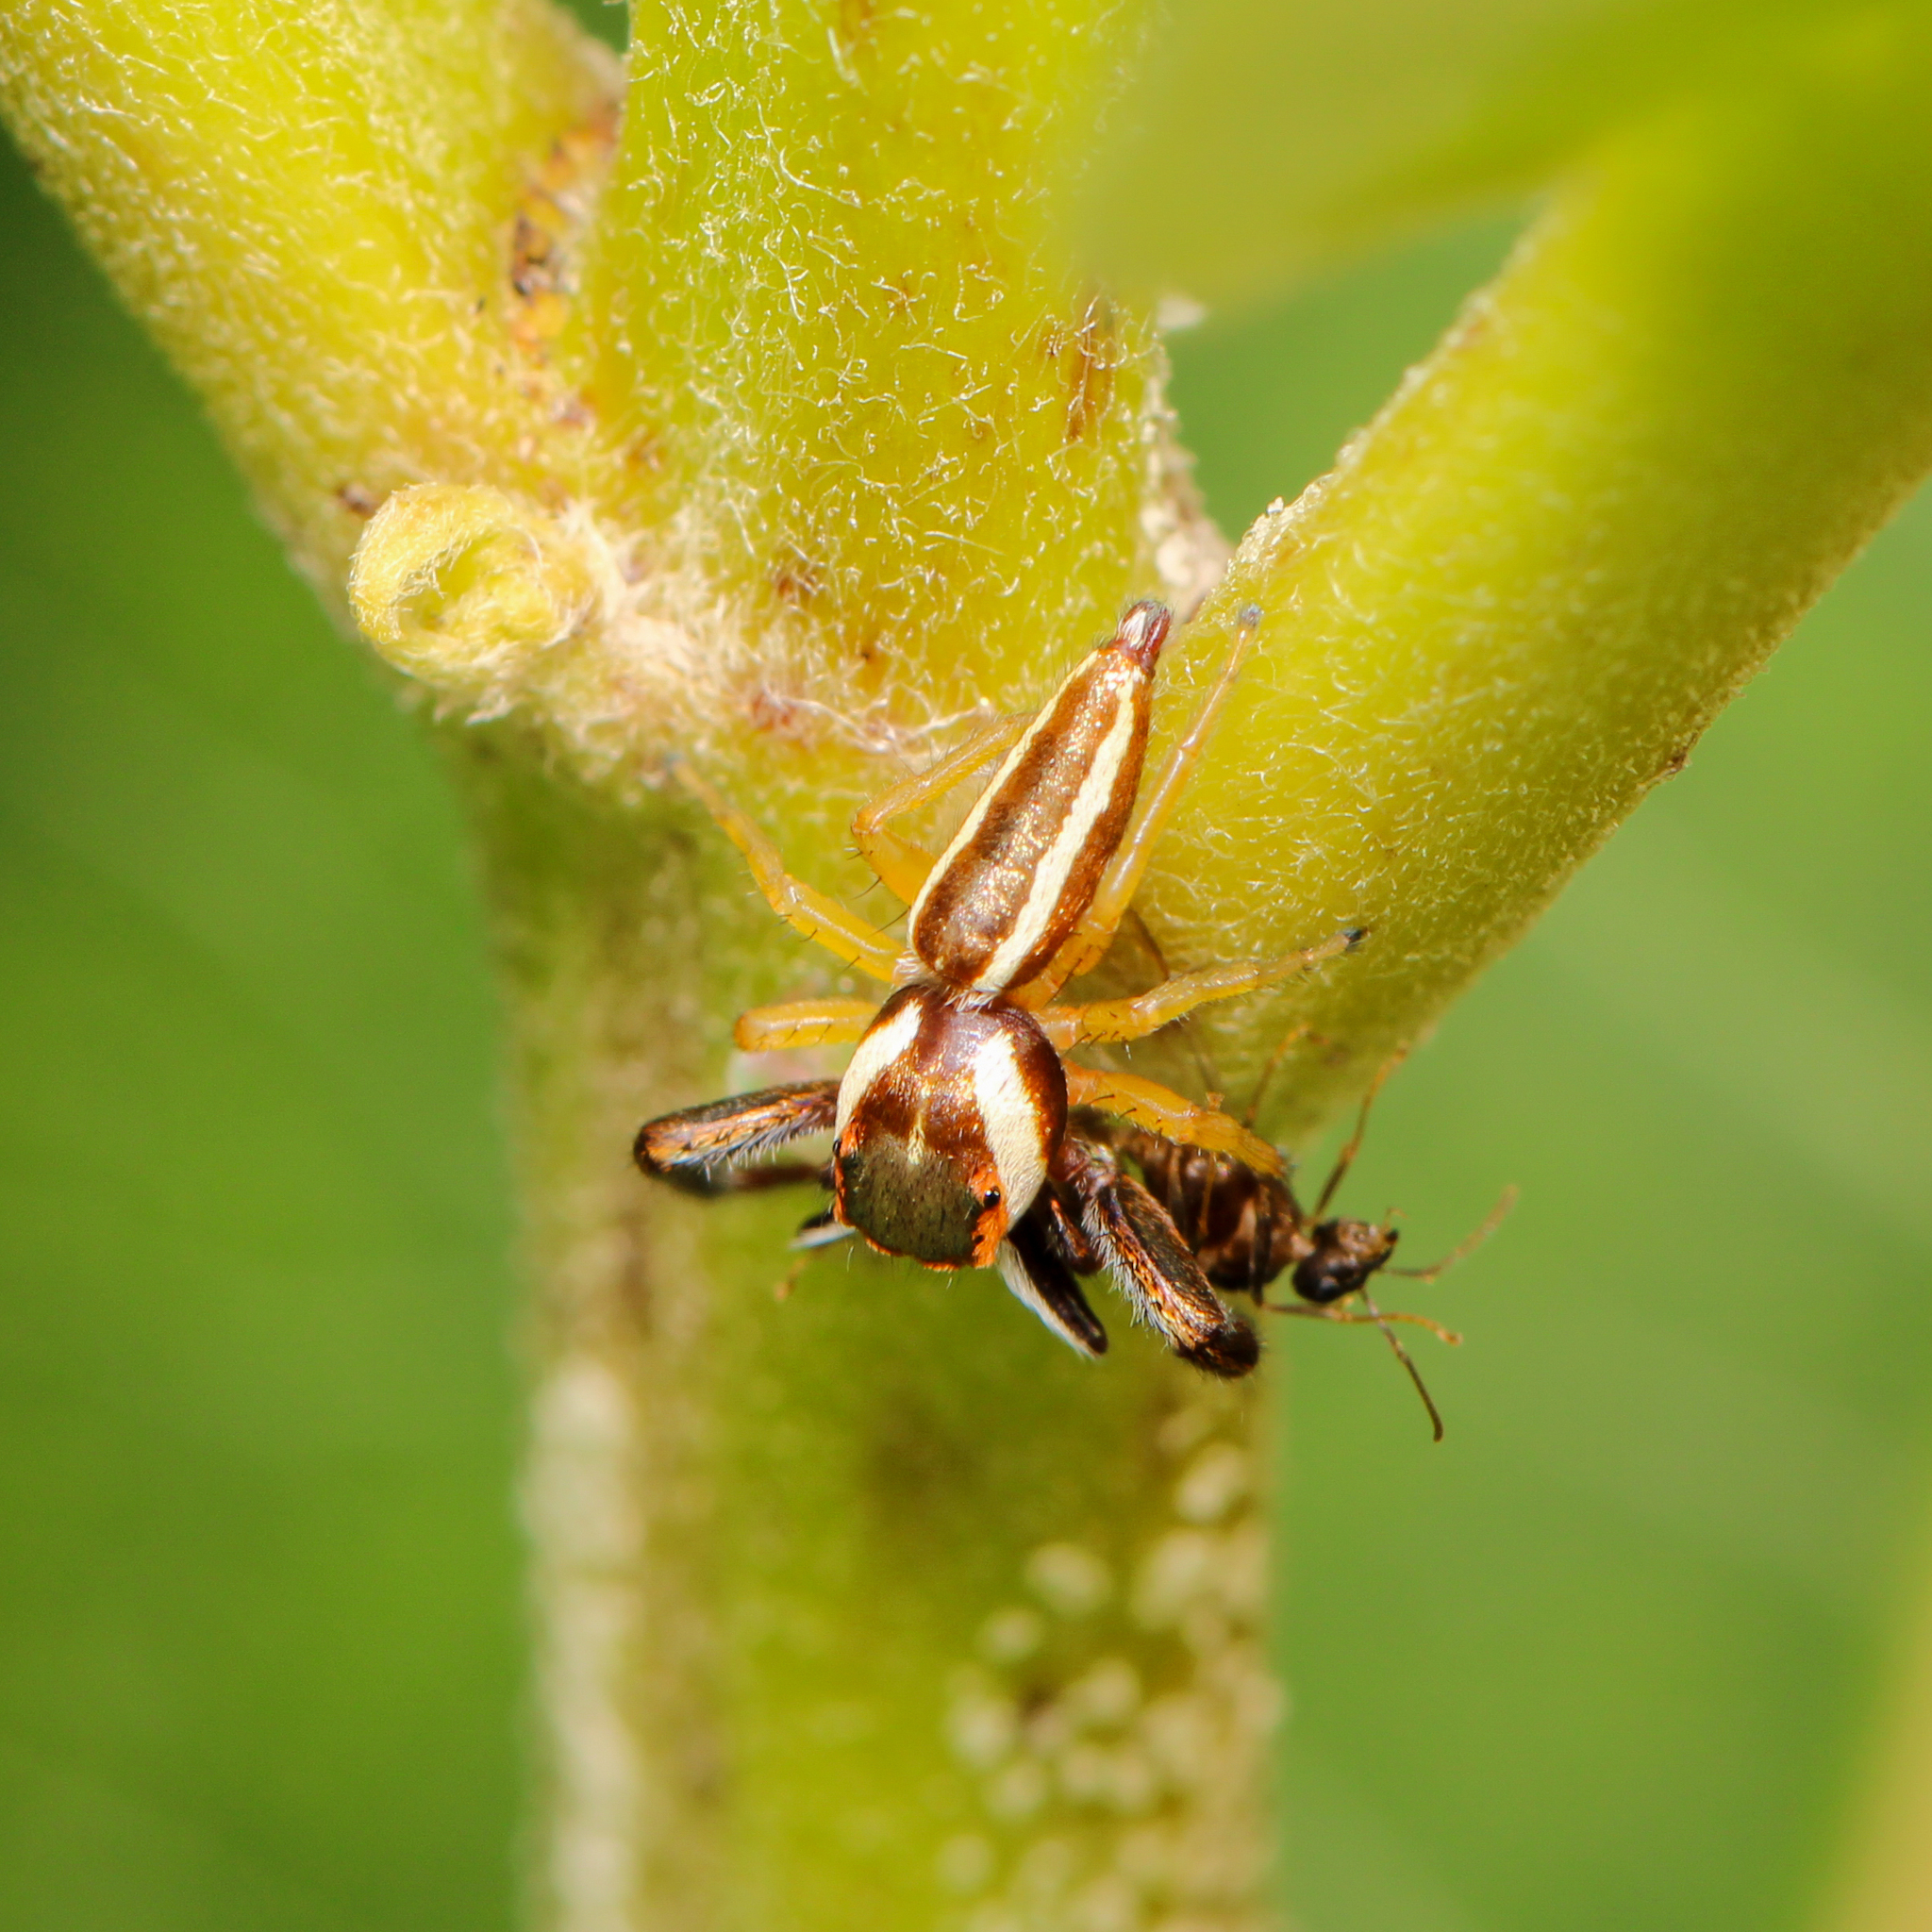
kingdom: Animalia
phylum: Arthropoda
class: Arachnida
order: Araneae
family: Salticidae
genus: Hentzia
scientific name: Hentzia palmarum
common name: Common hentz jumping spider
